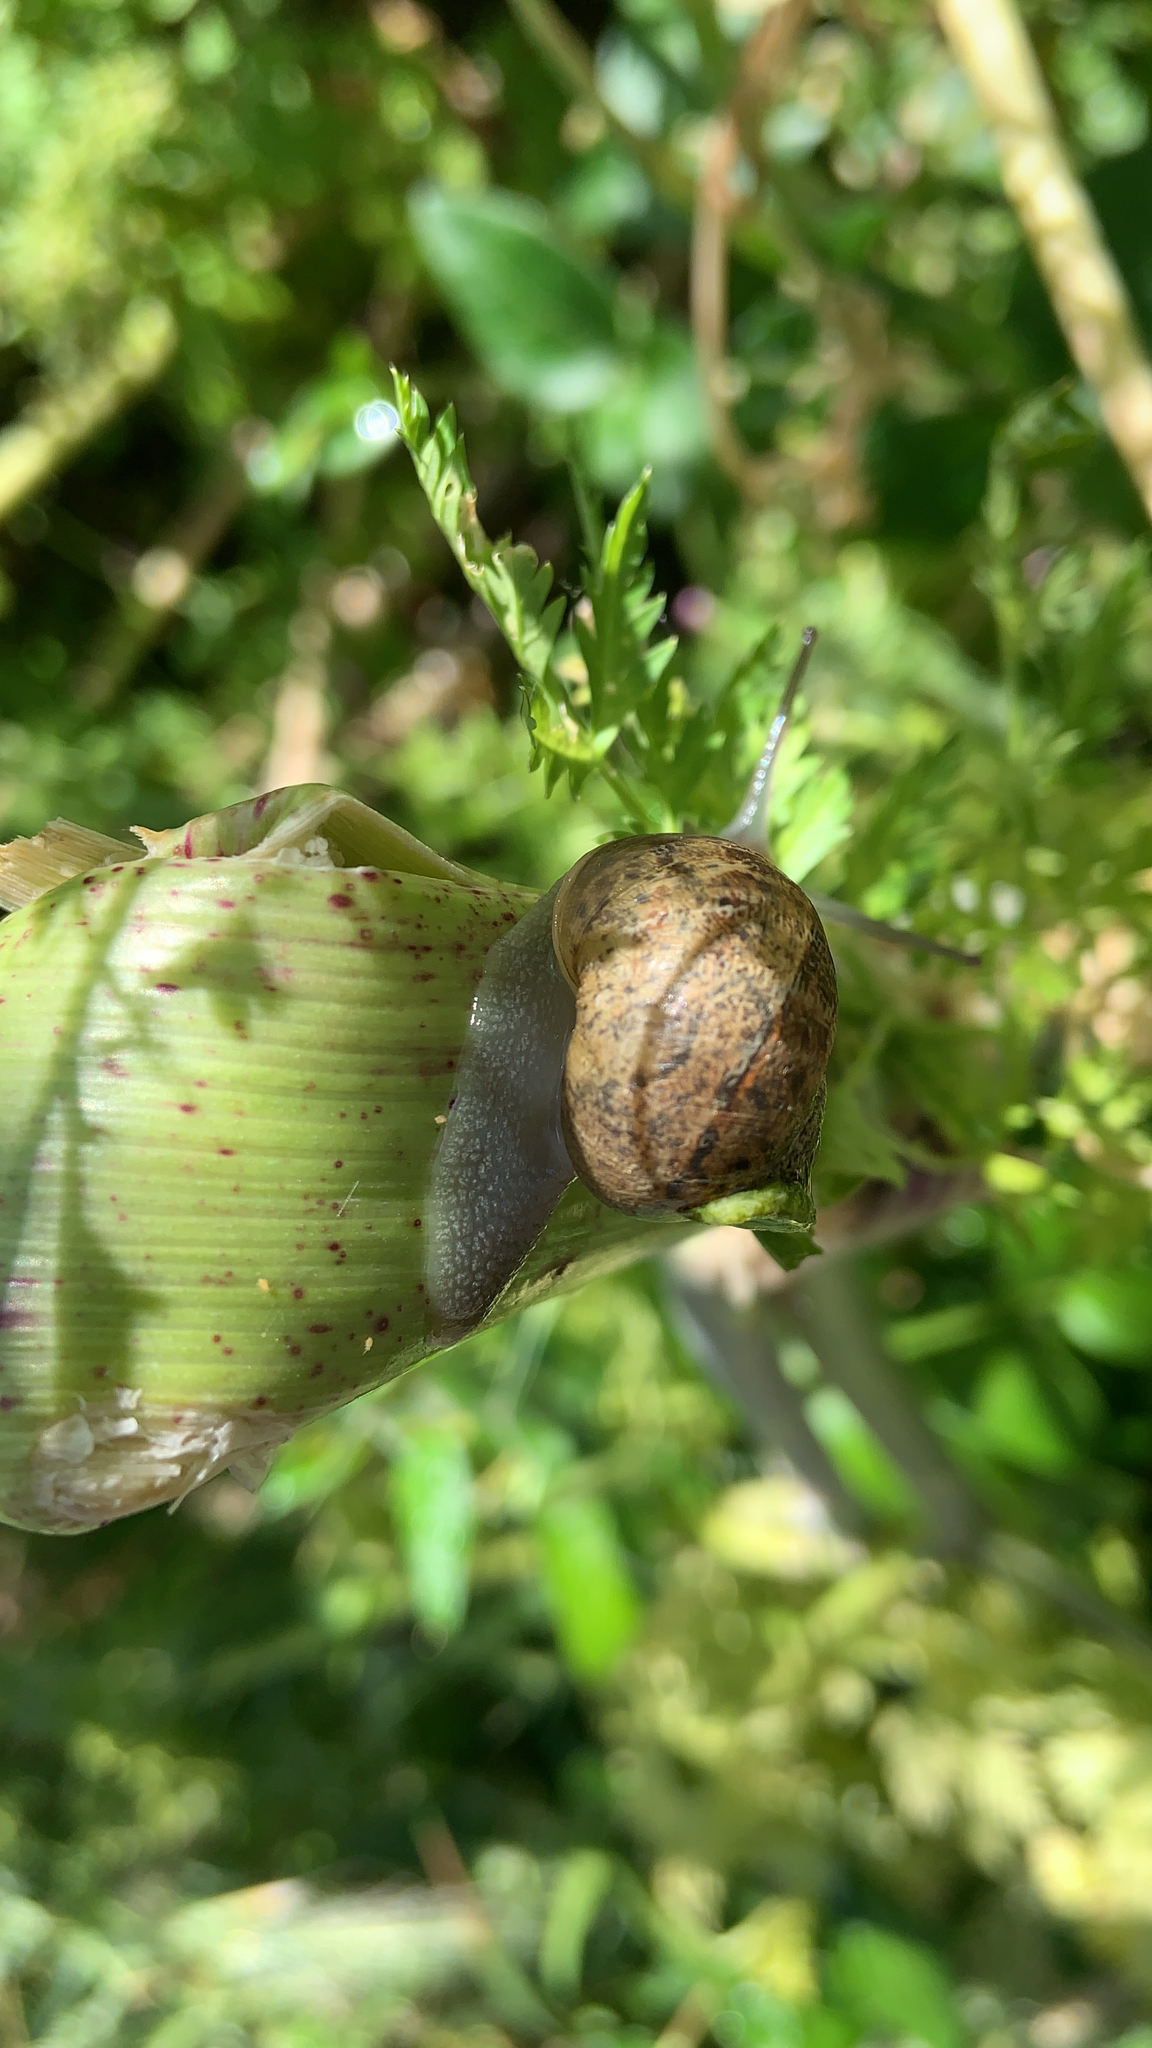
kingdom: Animalia
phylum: Mollusca
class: Gastropoda
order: Stylommatophora
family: Helicidae
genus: Cornu
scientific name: Cornu aspersum
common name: Brown garden snail
